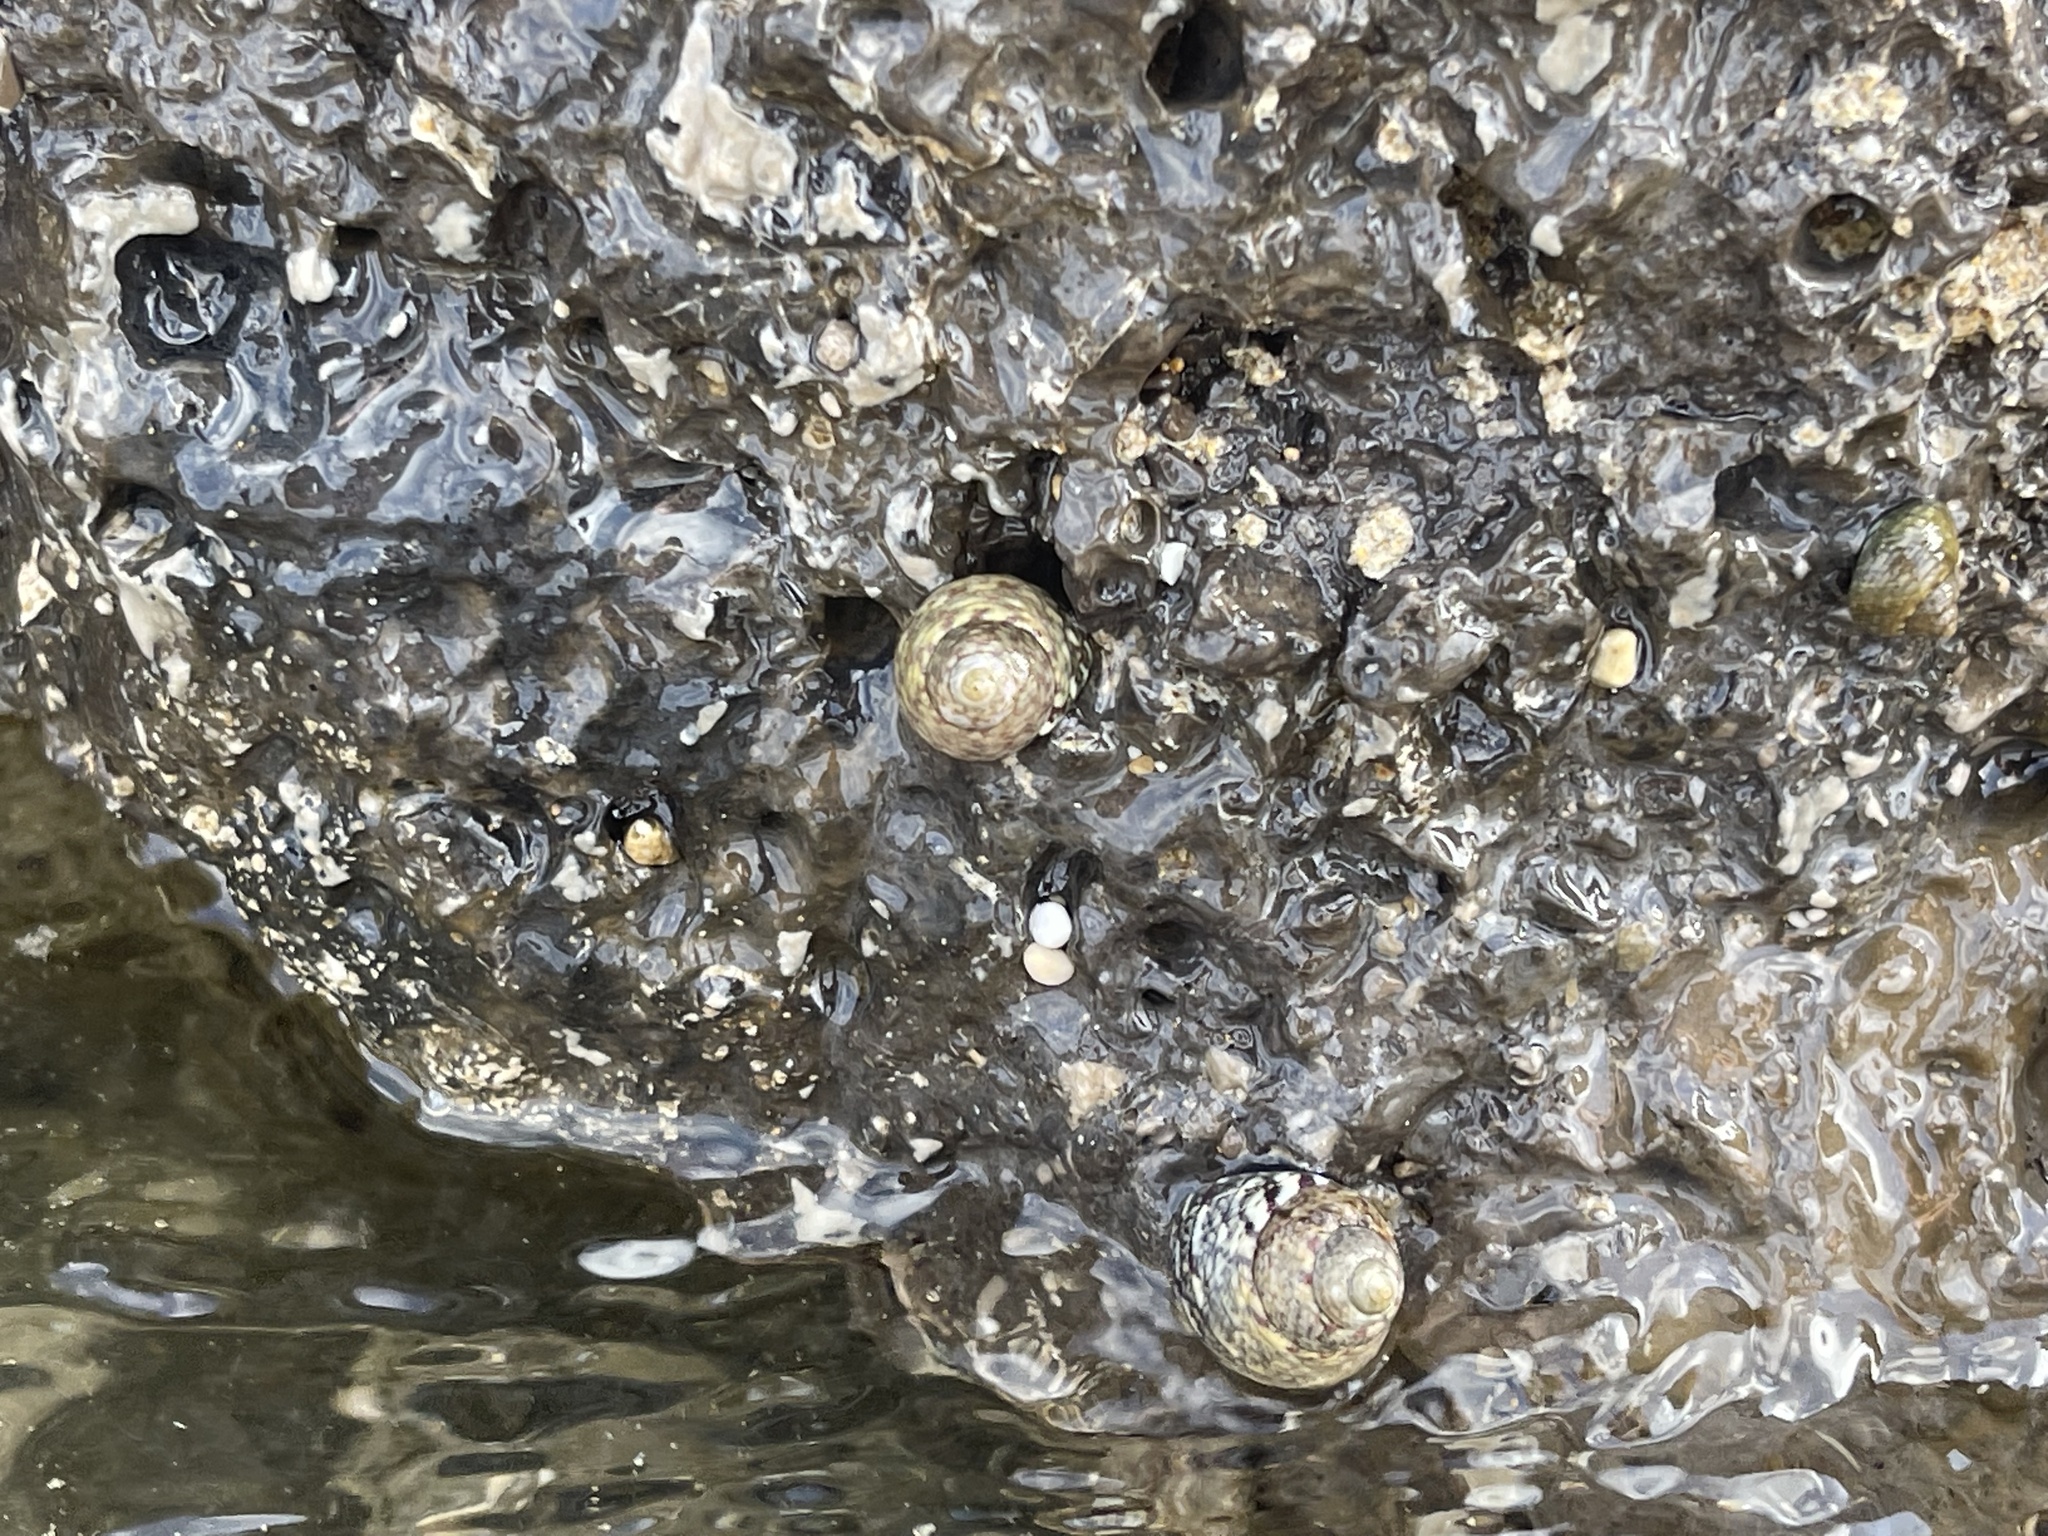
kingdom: Animalia
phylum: Mollusca
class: Gastropoda
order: Trochida
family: Trochidae
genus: Phorcus
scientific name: Phorcus articulatus
